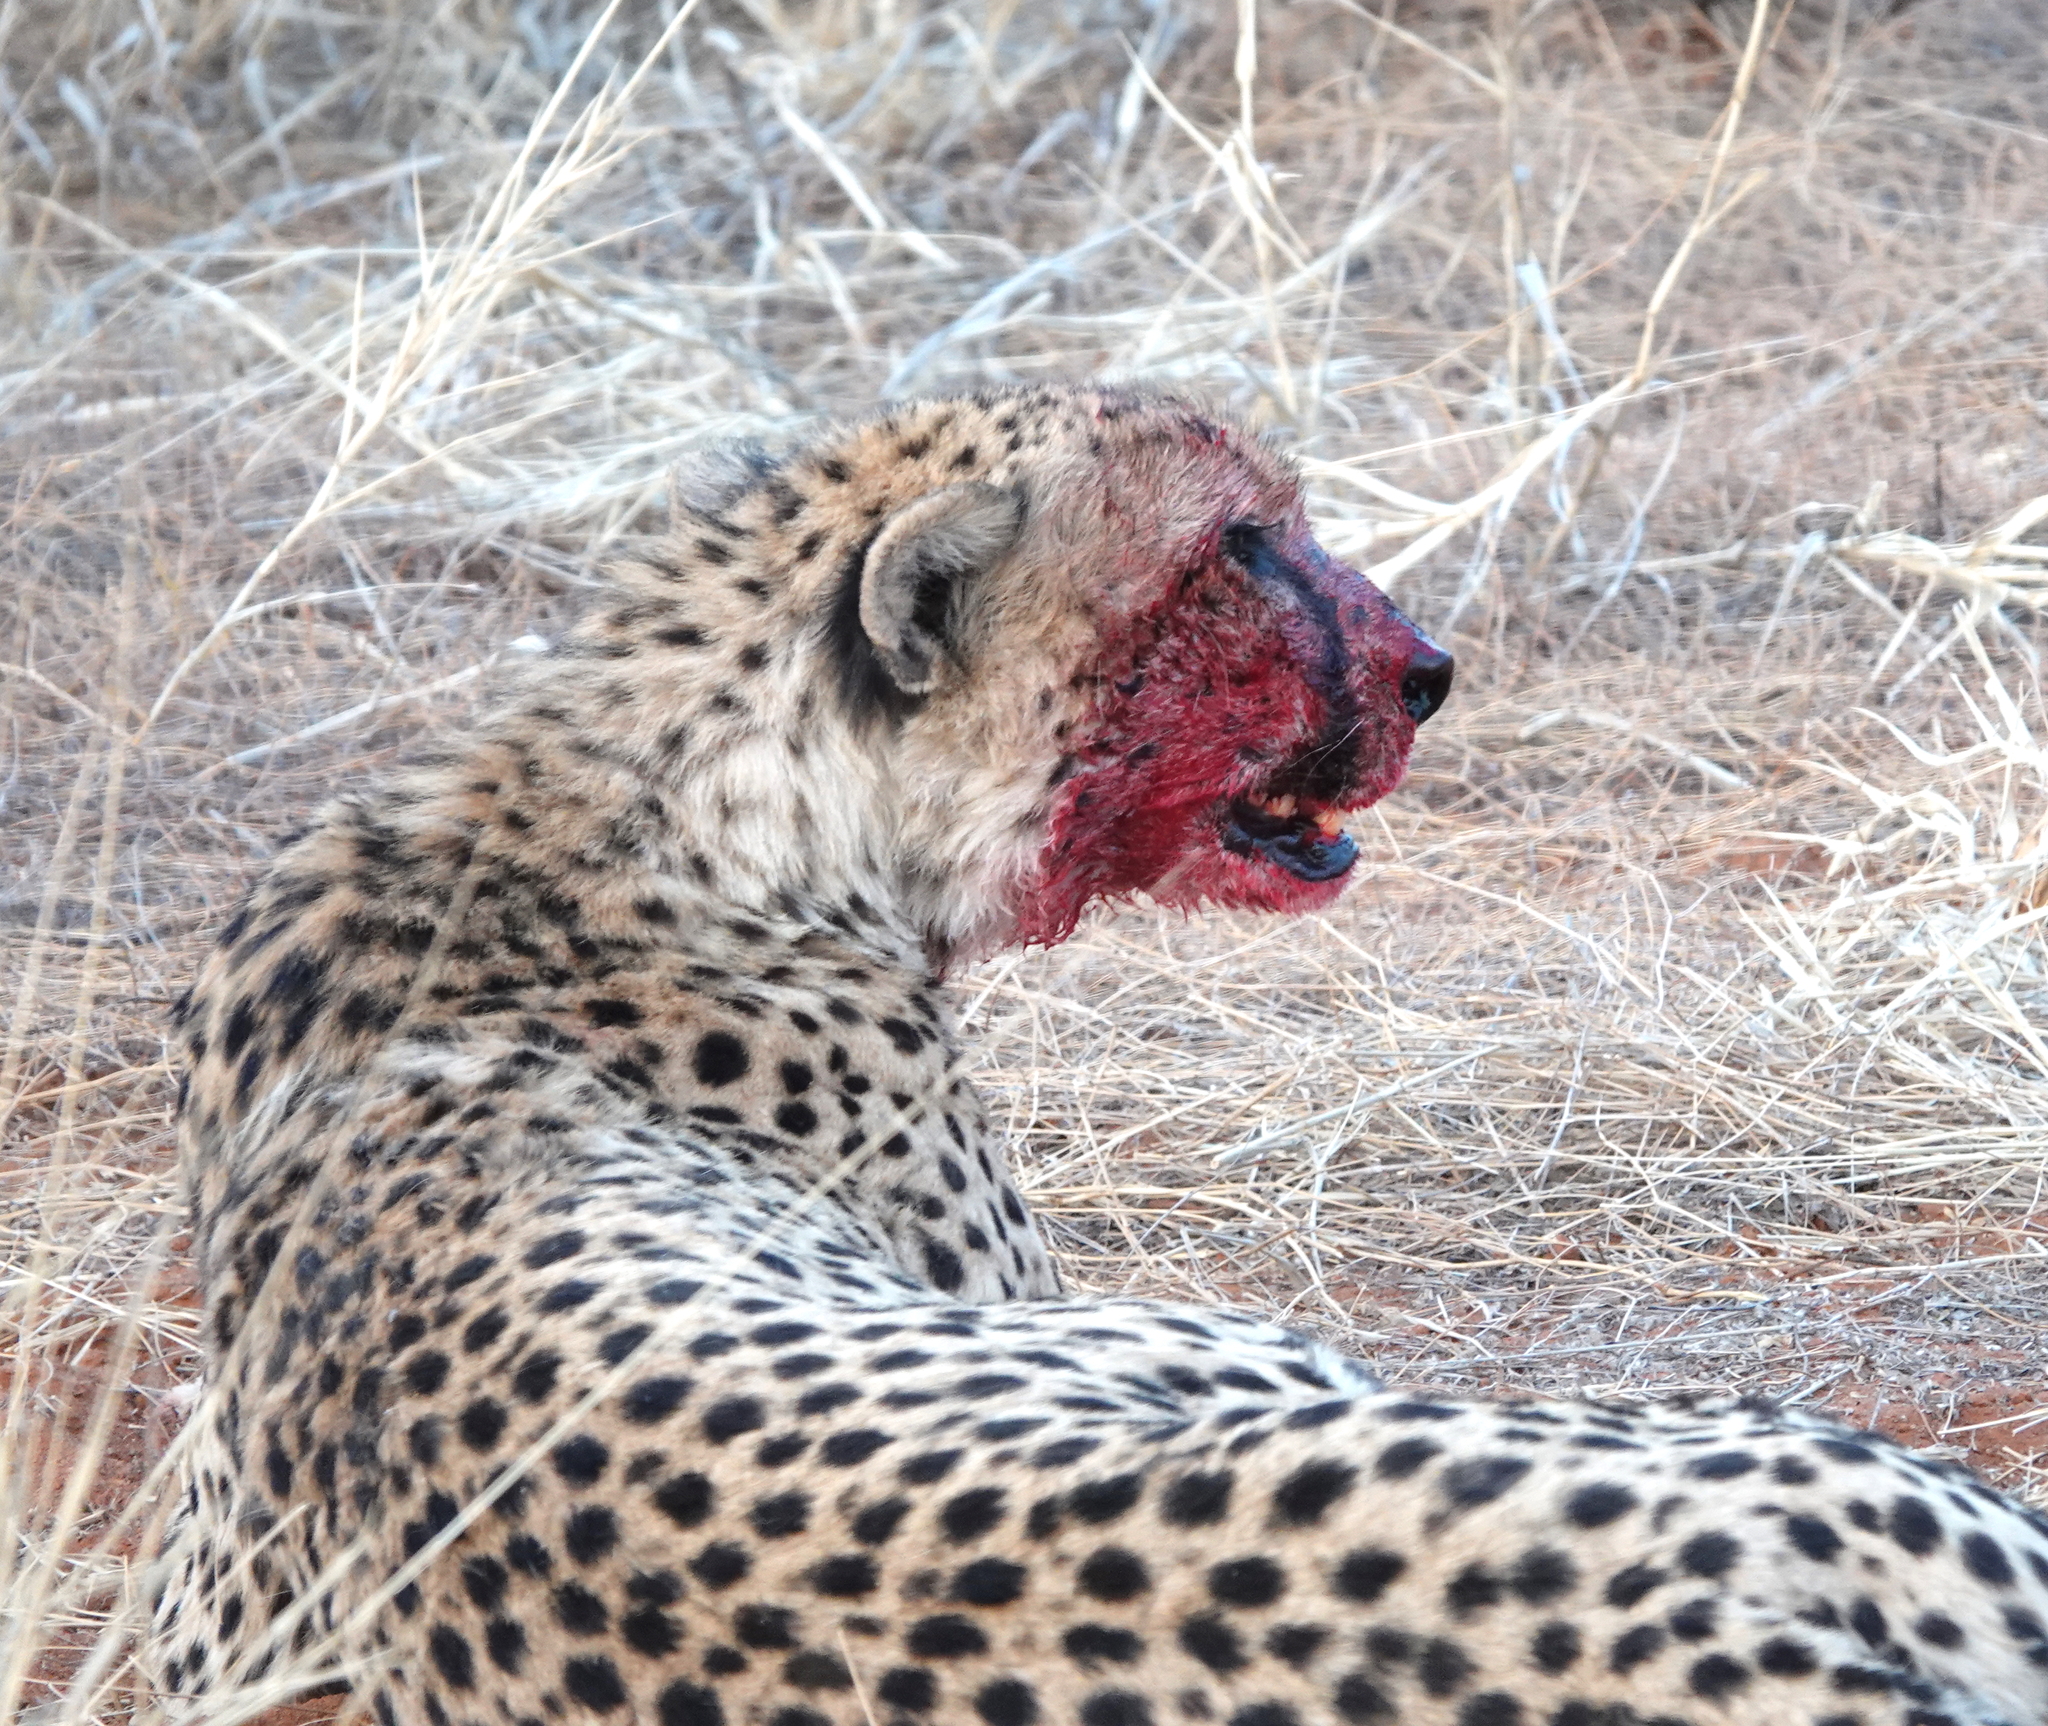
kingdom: Animalia
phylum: Chordata
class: Mammalia
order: Carnivora
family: Felidae
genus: Acinonyx
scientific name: Acinonyx jubatus
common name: Cheetah
